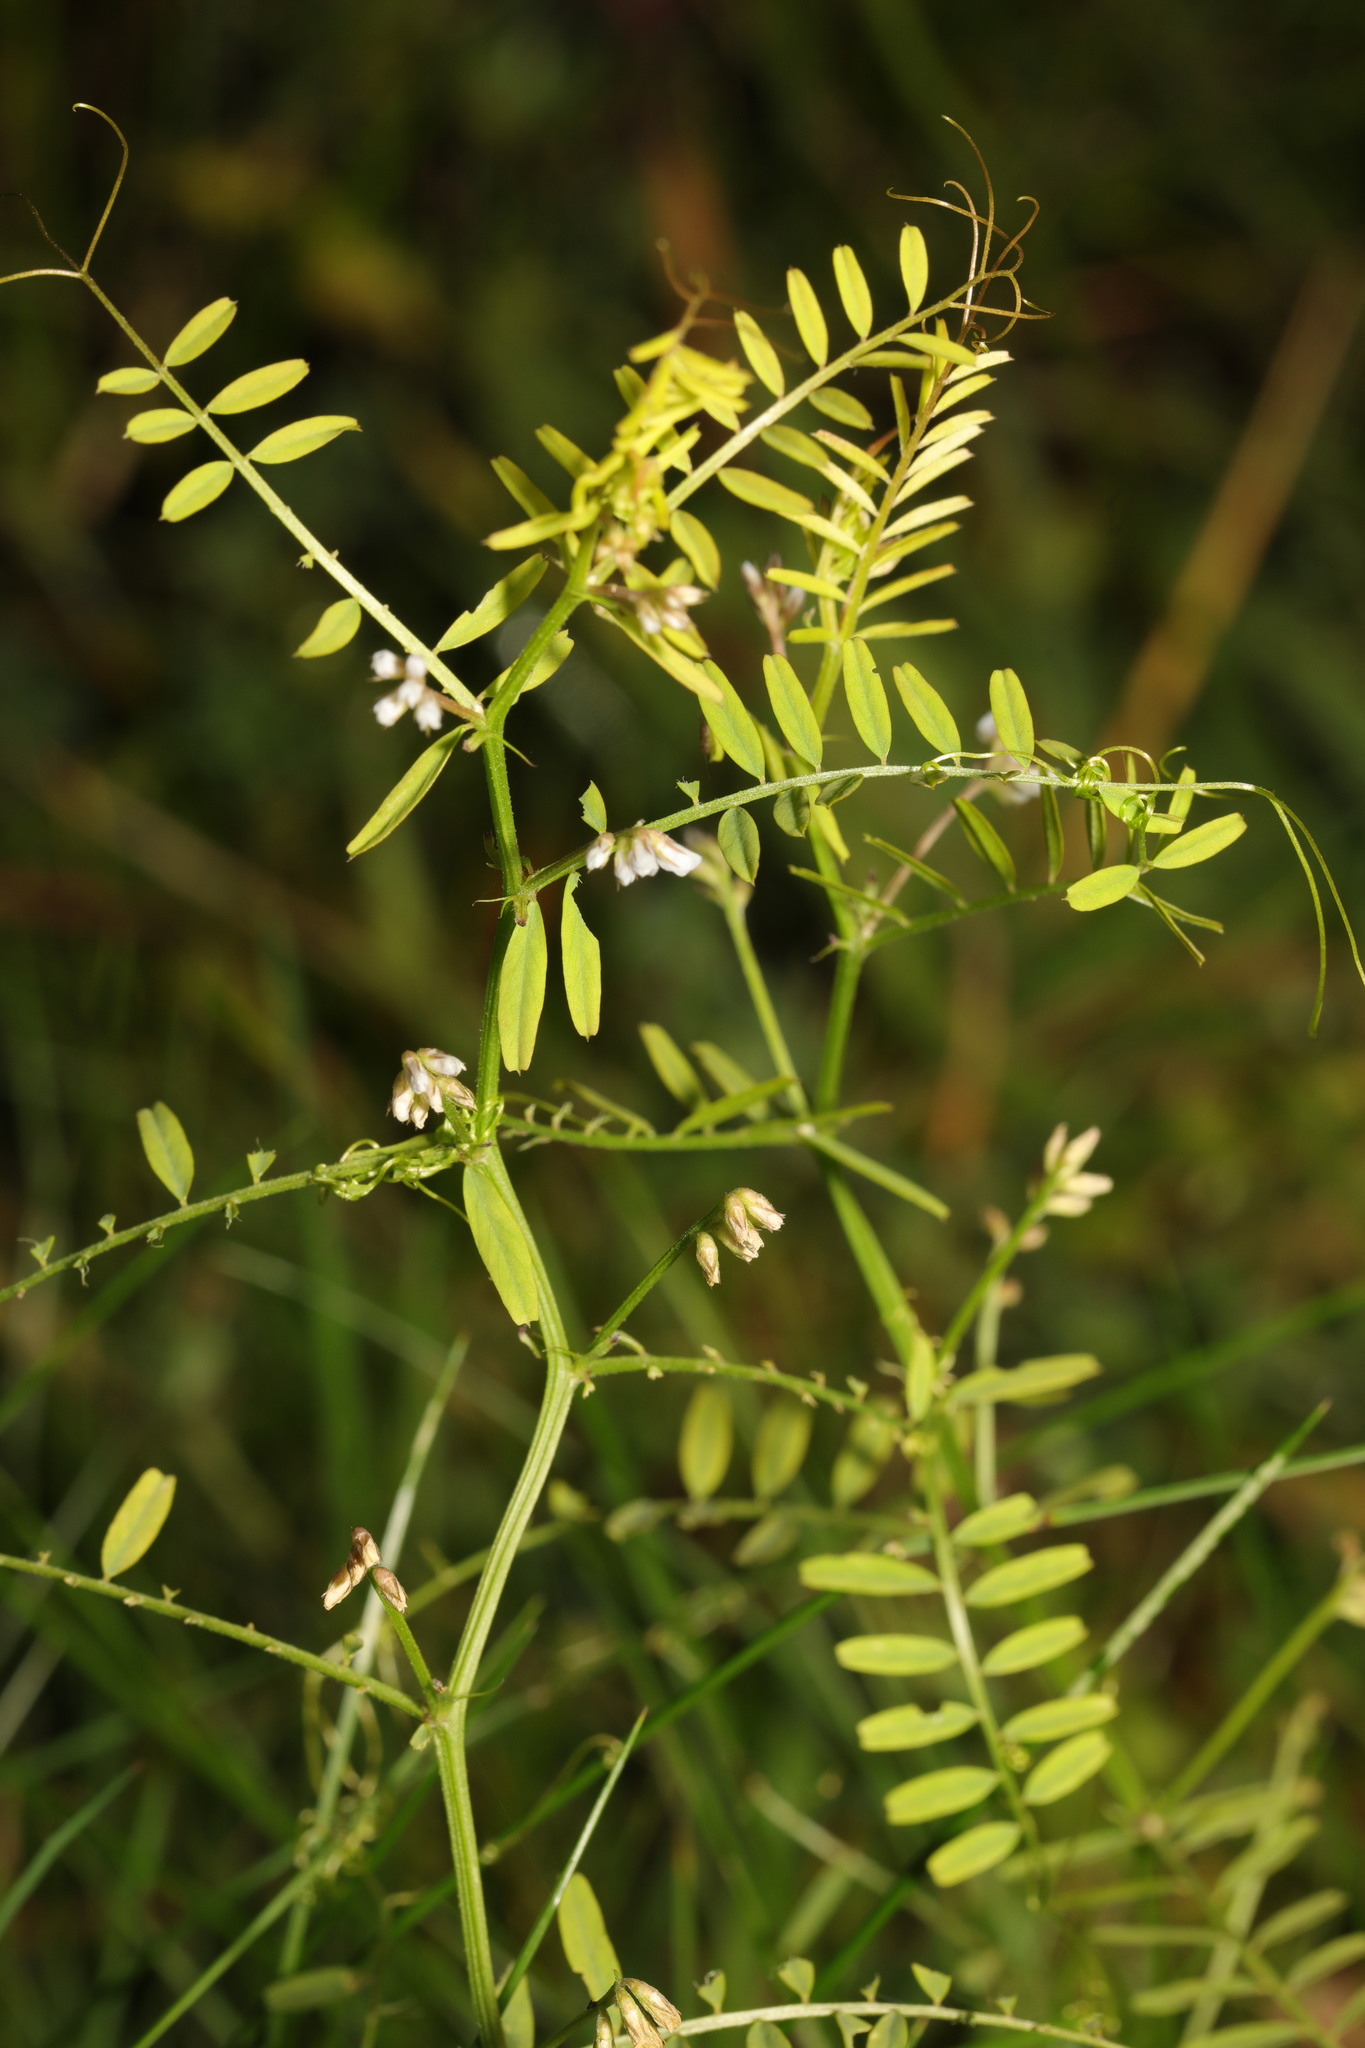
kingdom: Plantae
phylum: Tracheophyta
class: Magnoliopsida
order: Fabales
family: Fabaceae
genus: Vicia
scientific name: Vicia hirsuta
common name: Tiny vetch
